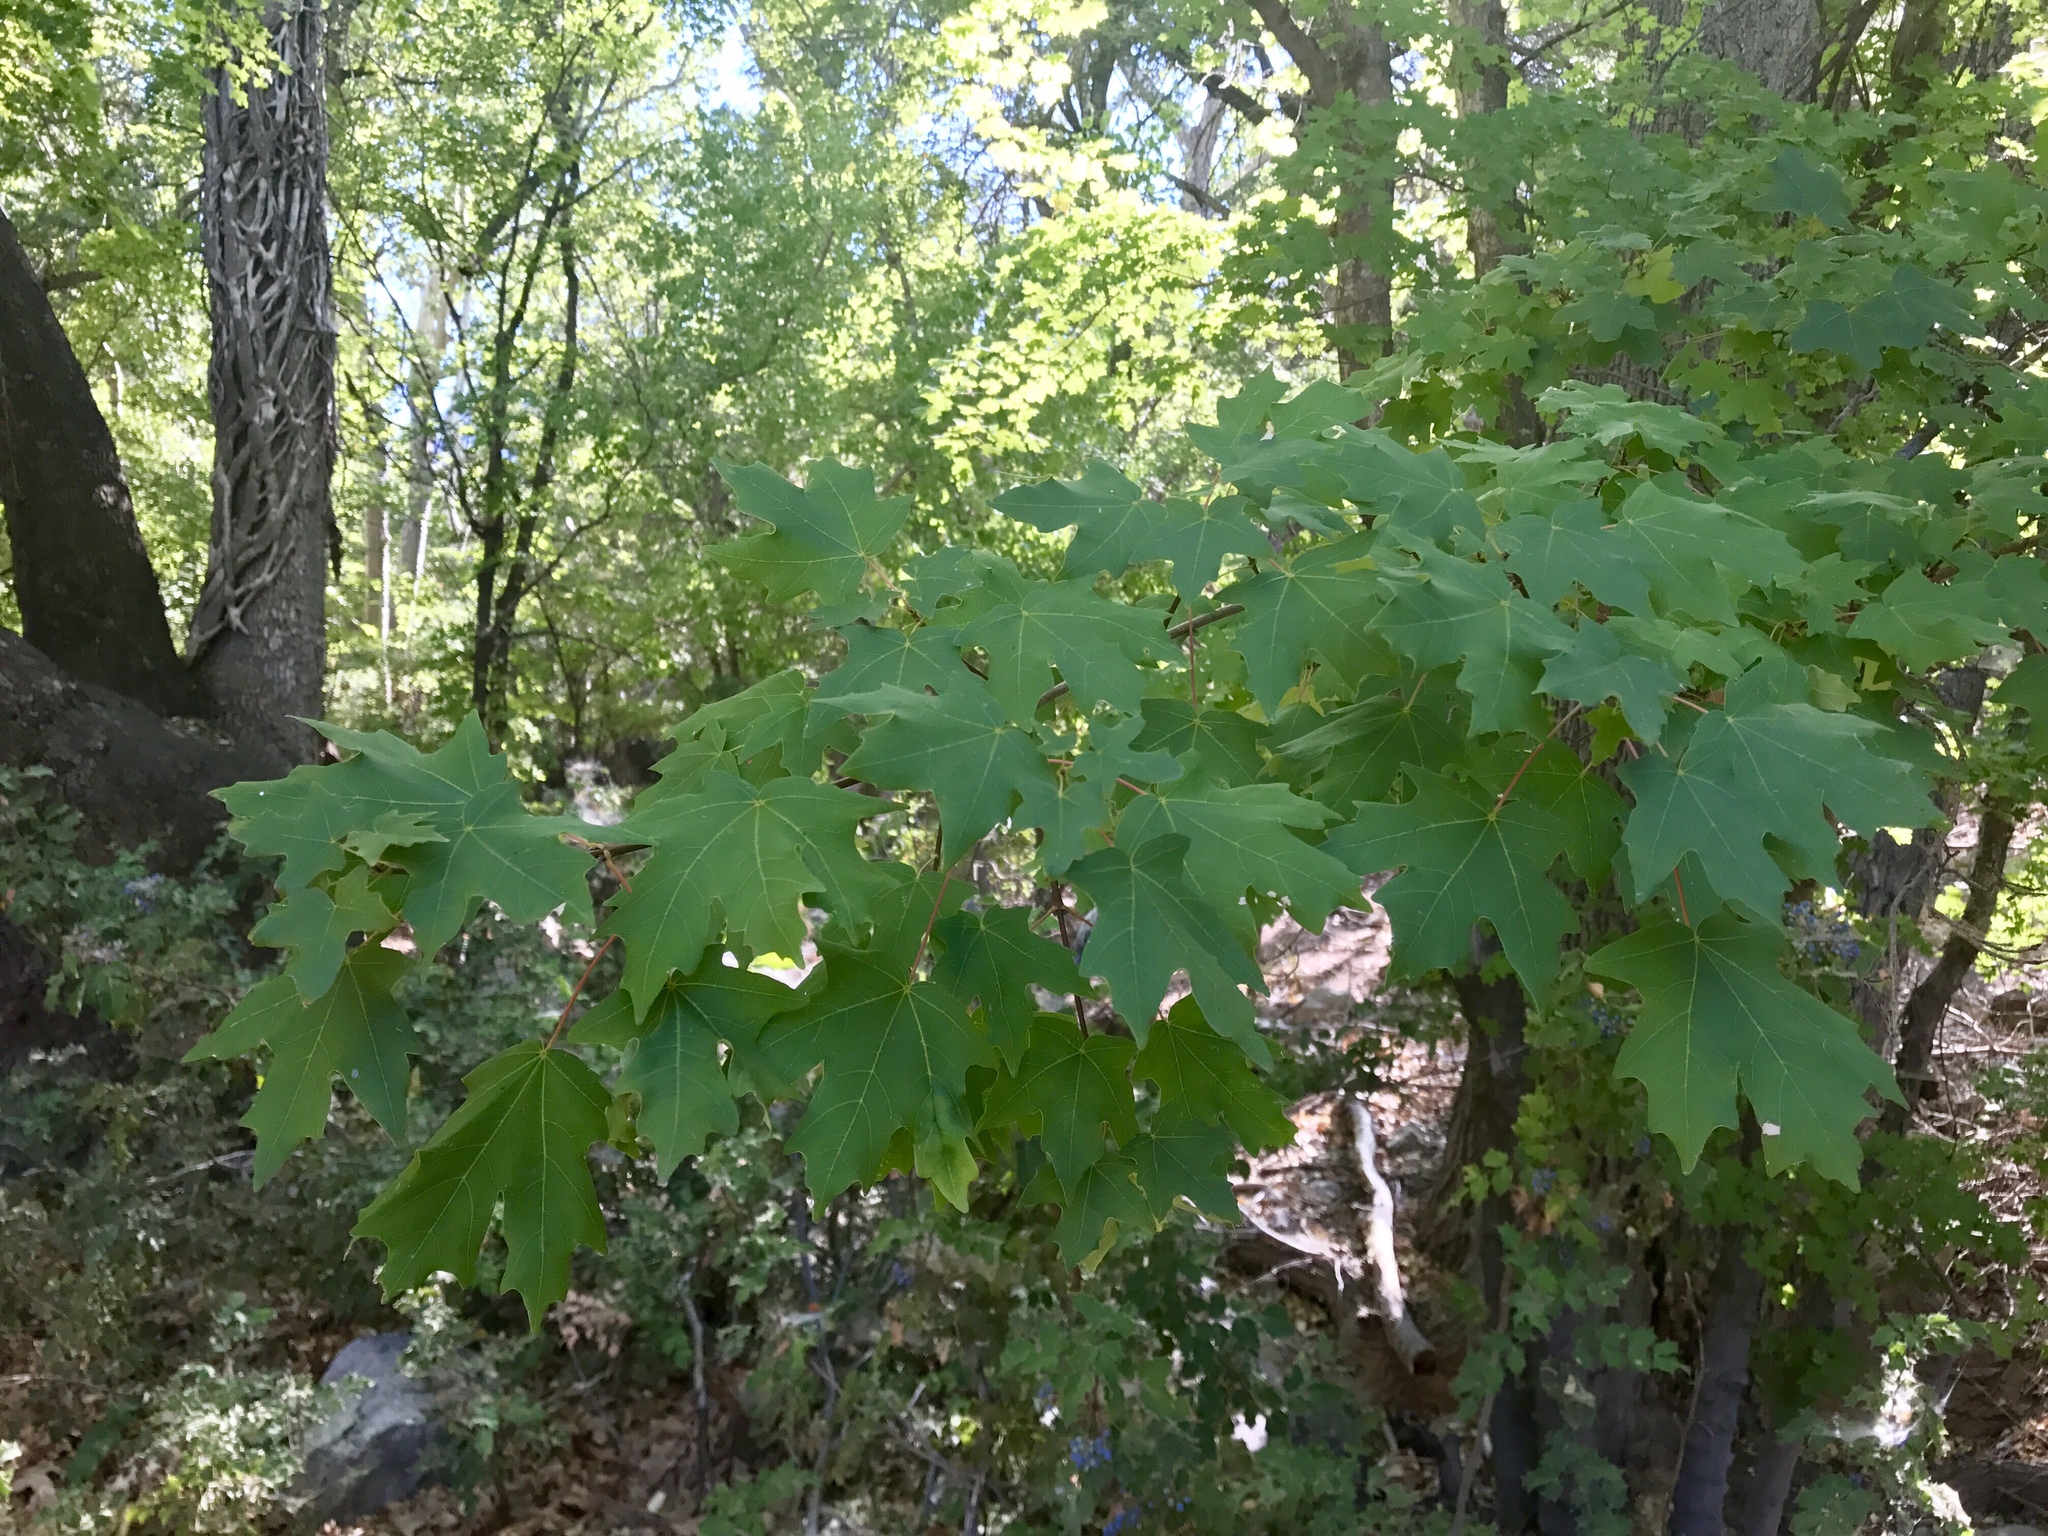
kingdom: Plantae
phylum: Tracheophyta
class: Magnoliopsida
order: Sapindales
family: Sapindaceae
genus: Acer
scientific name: Acer grandidentatum
